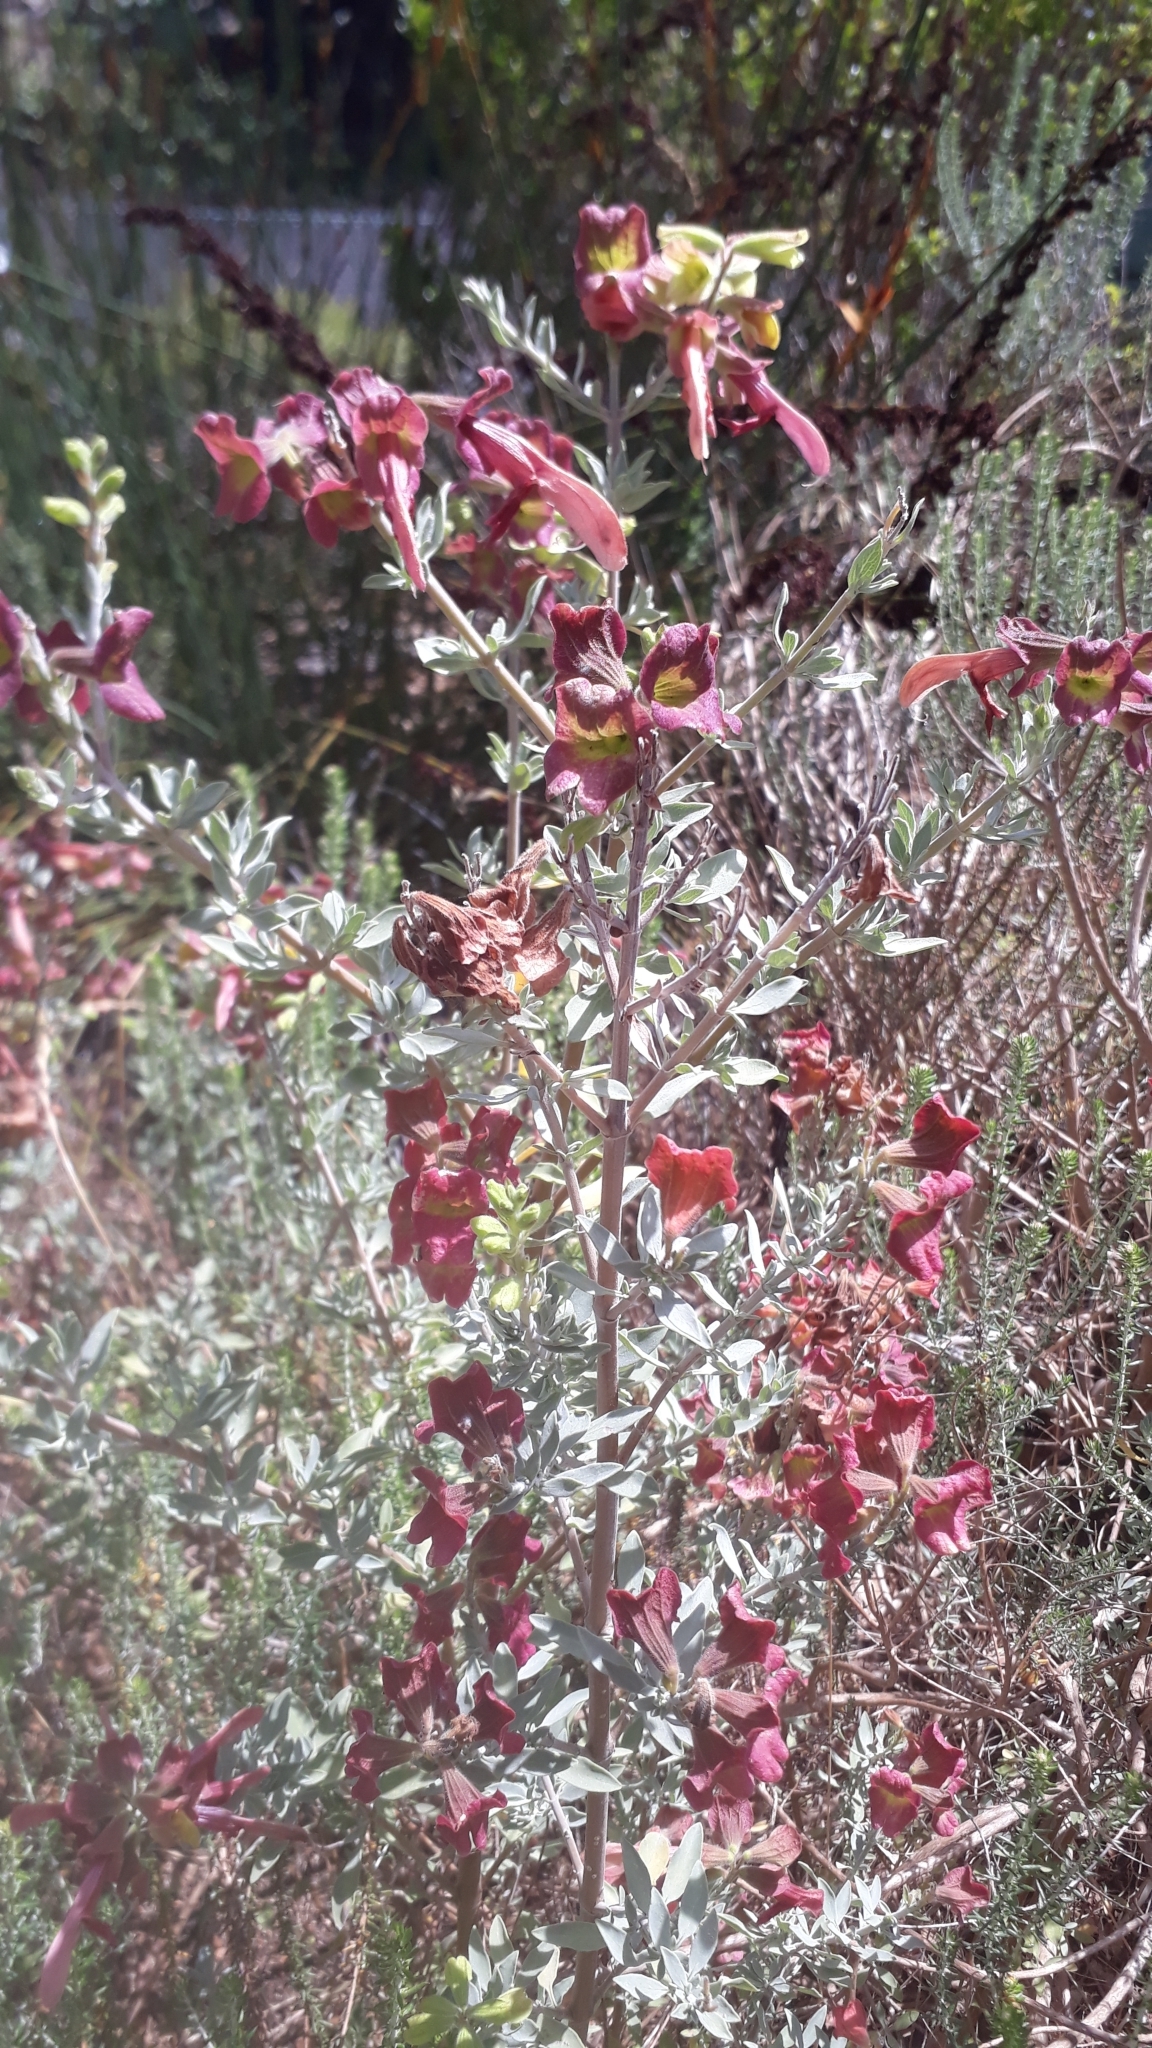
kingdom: Plantae
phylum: Tracheophyta
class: Magnoliopsida
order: Lamiales
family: Lamiaceae
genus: Salvia
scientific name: Salvia lanceolata
